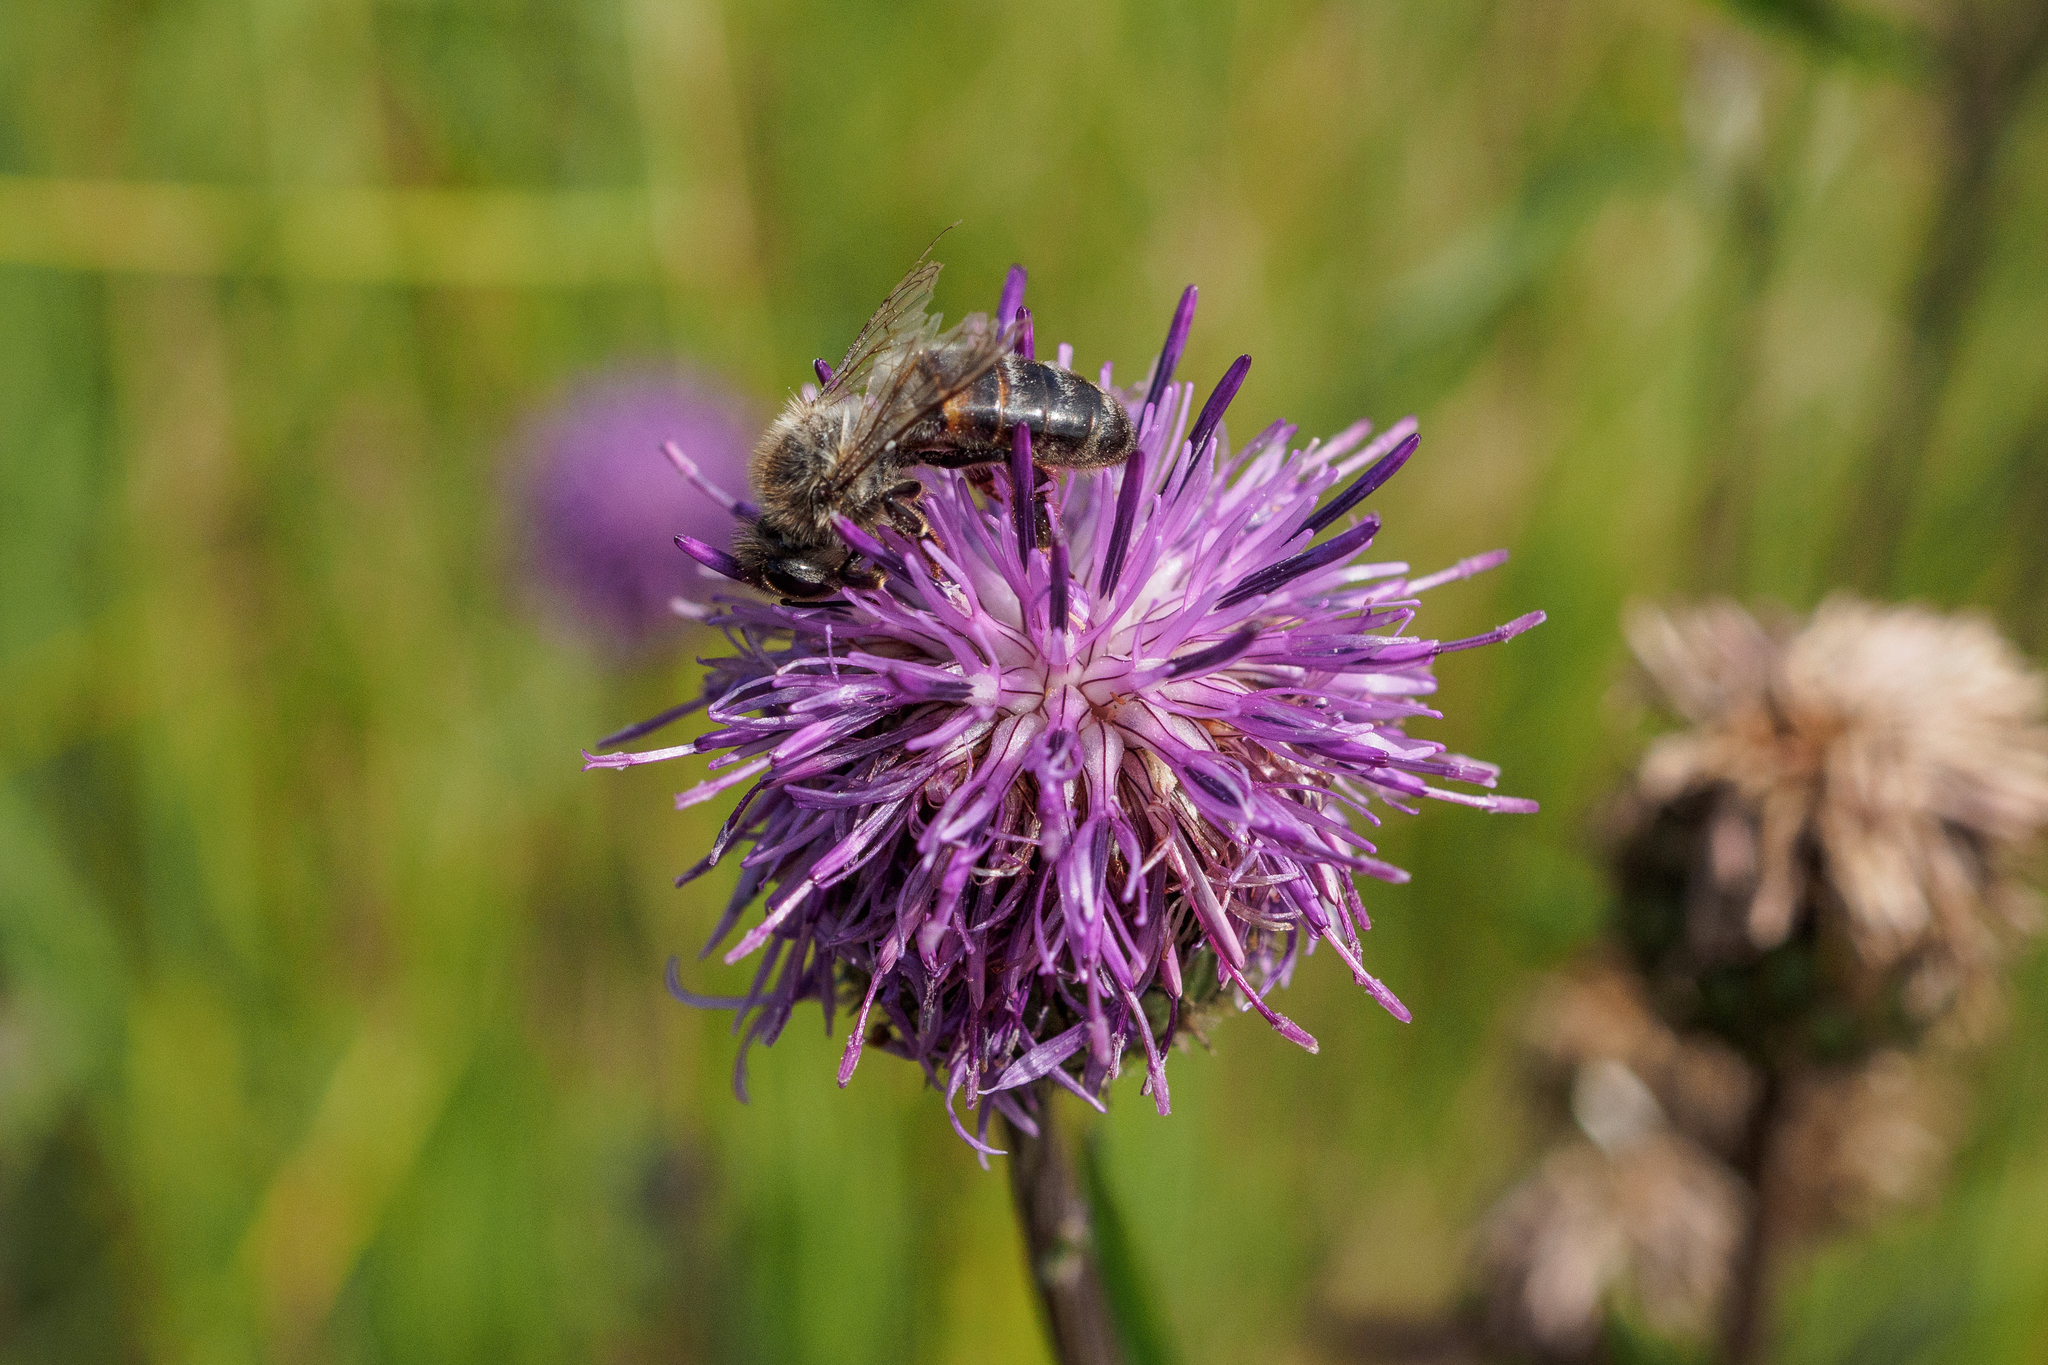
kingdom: Animalia
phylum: Arthropoda
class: Insecta
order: Hymenoptera
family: Apidae
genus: Apis
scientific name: Apis mellifera
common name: Honey bee
